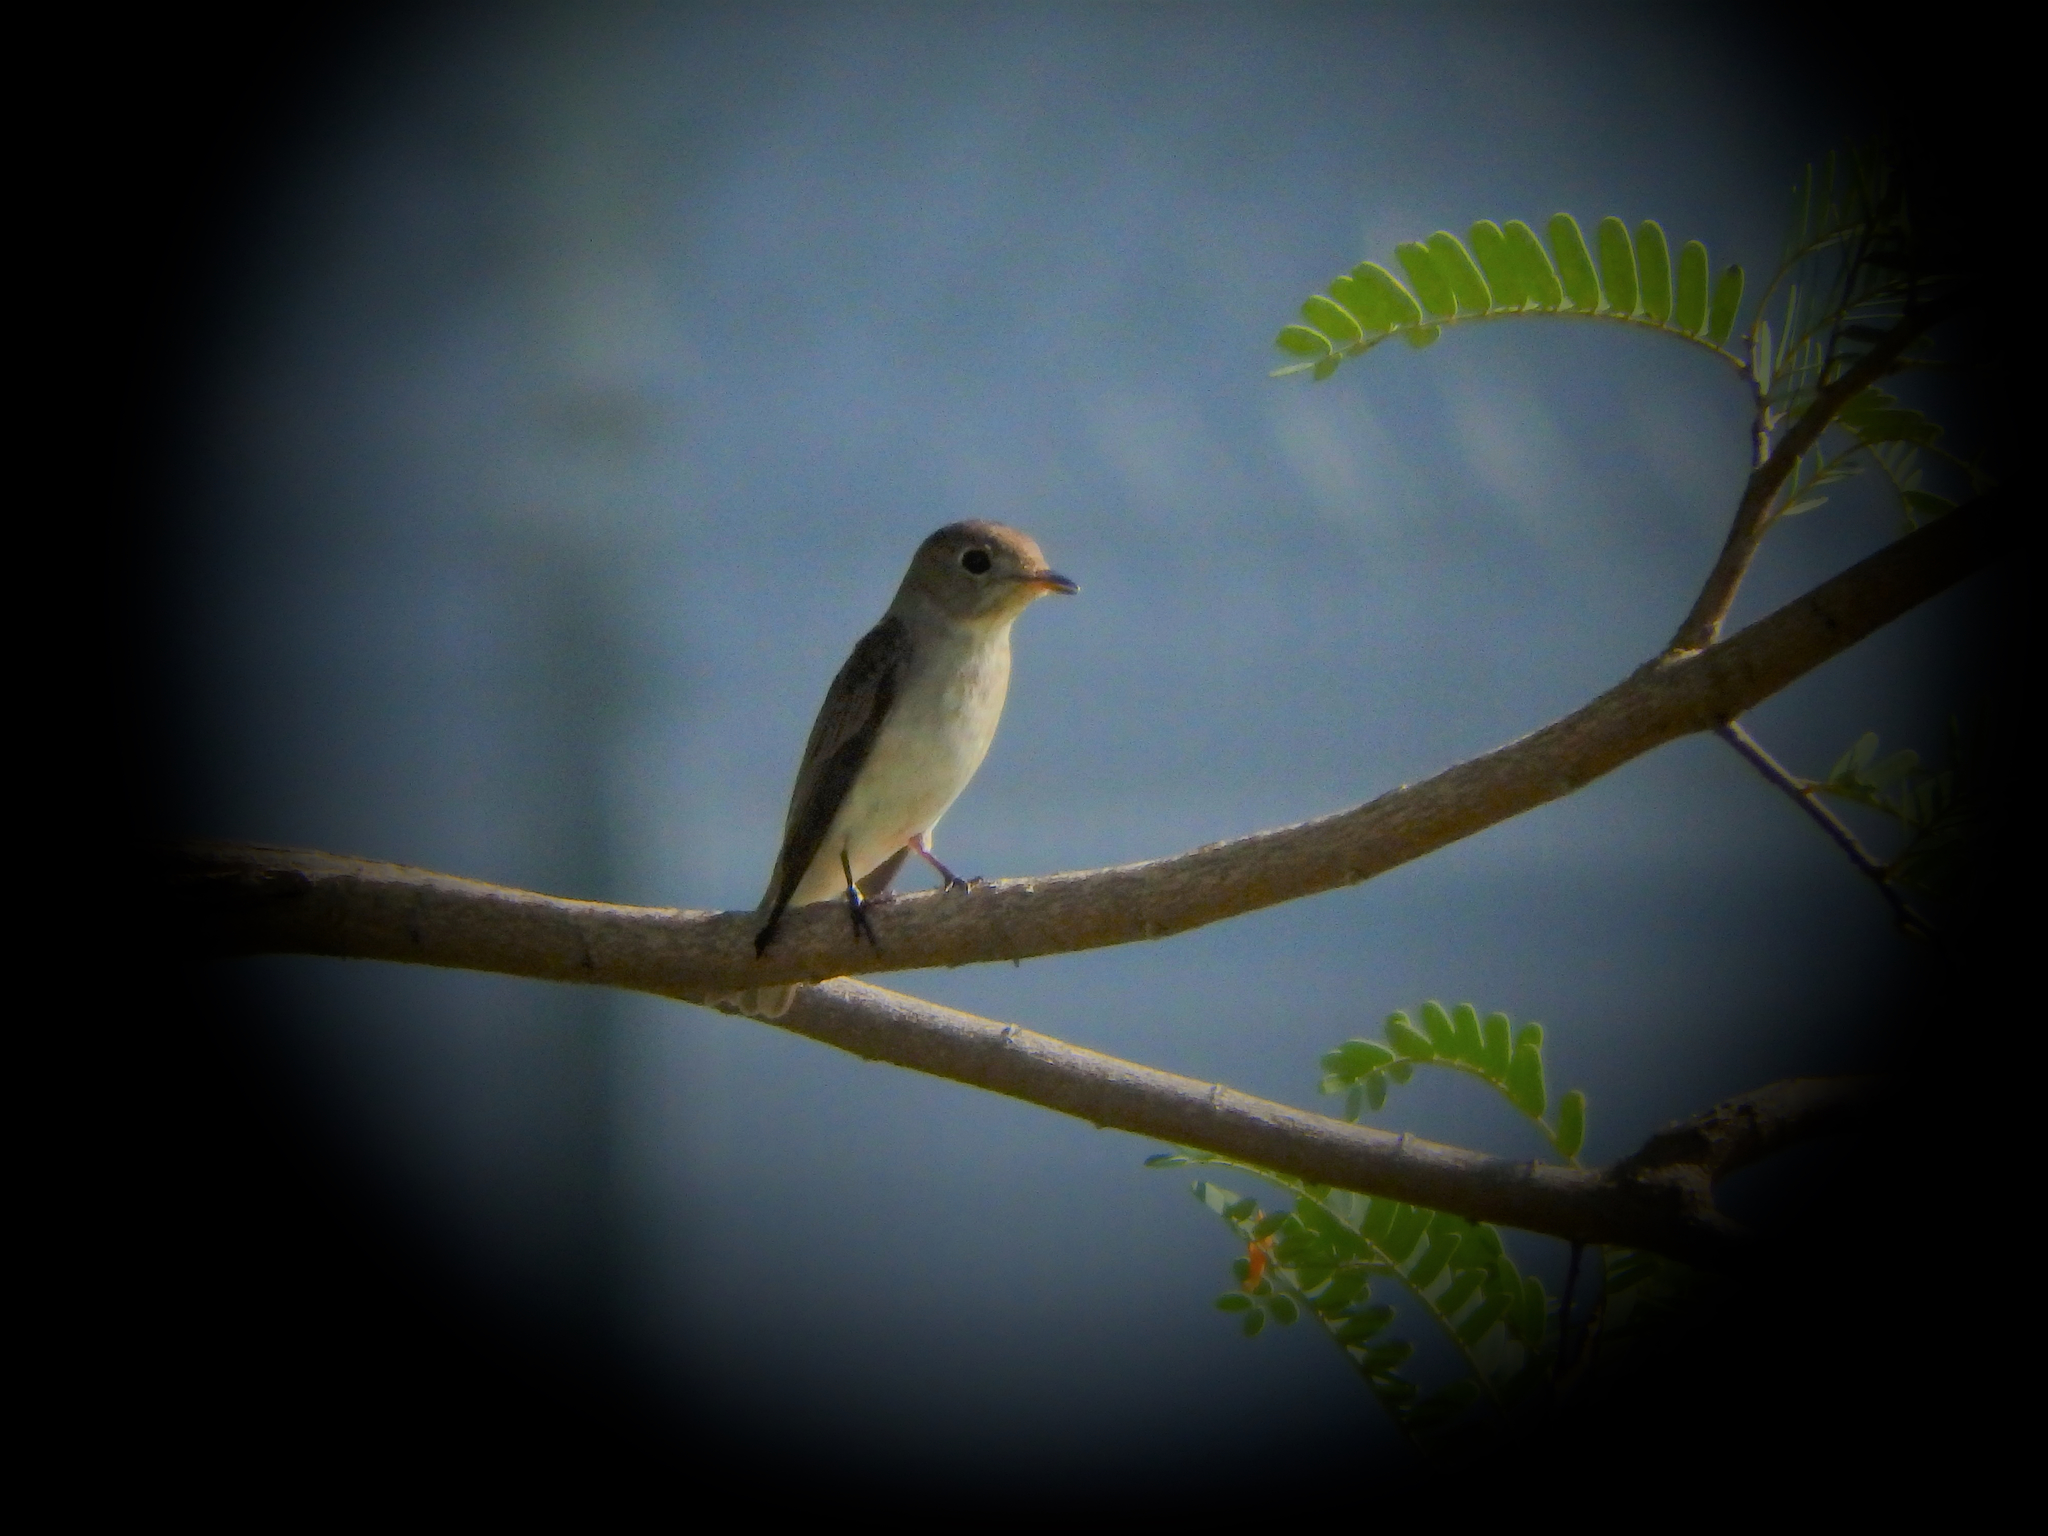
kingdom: Animalia
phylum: Chordata
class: Aves
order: Passeriformes
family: Muscicapidae
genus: Muscicapa
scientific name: Muscicapa latirostris
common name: Asian brown flycatcher
